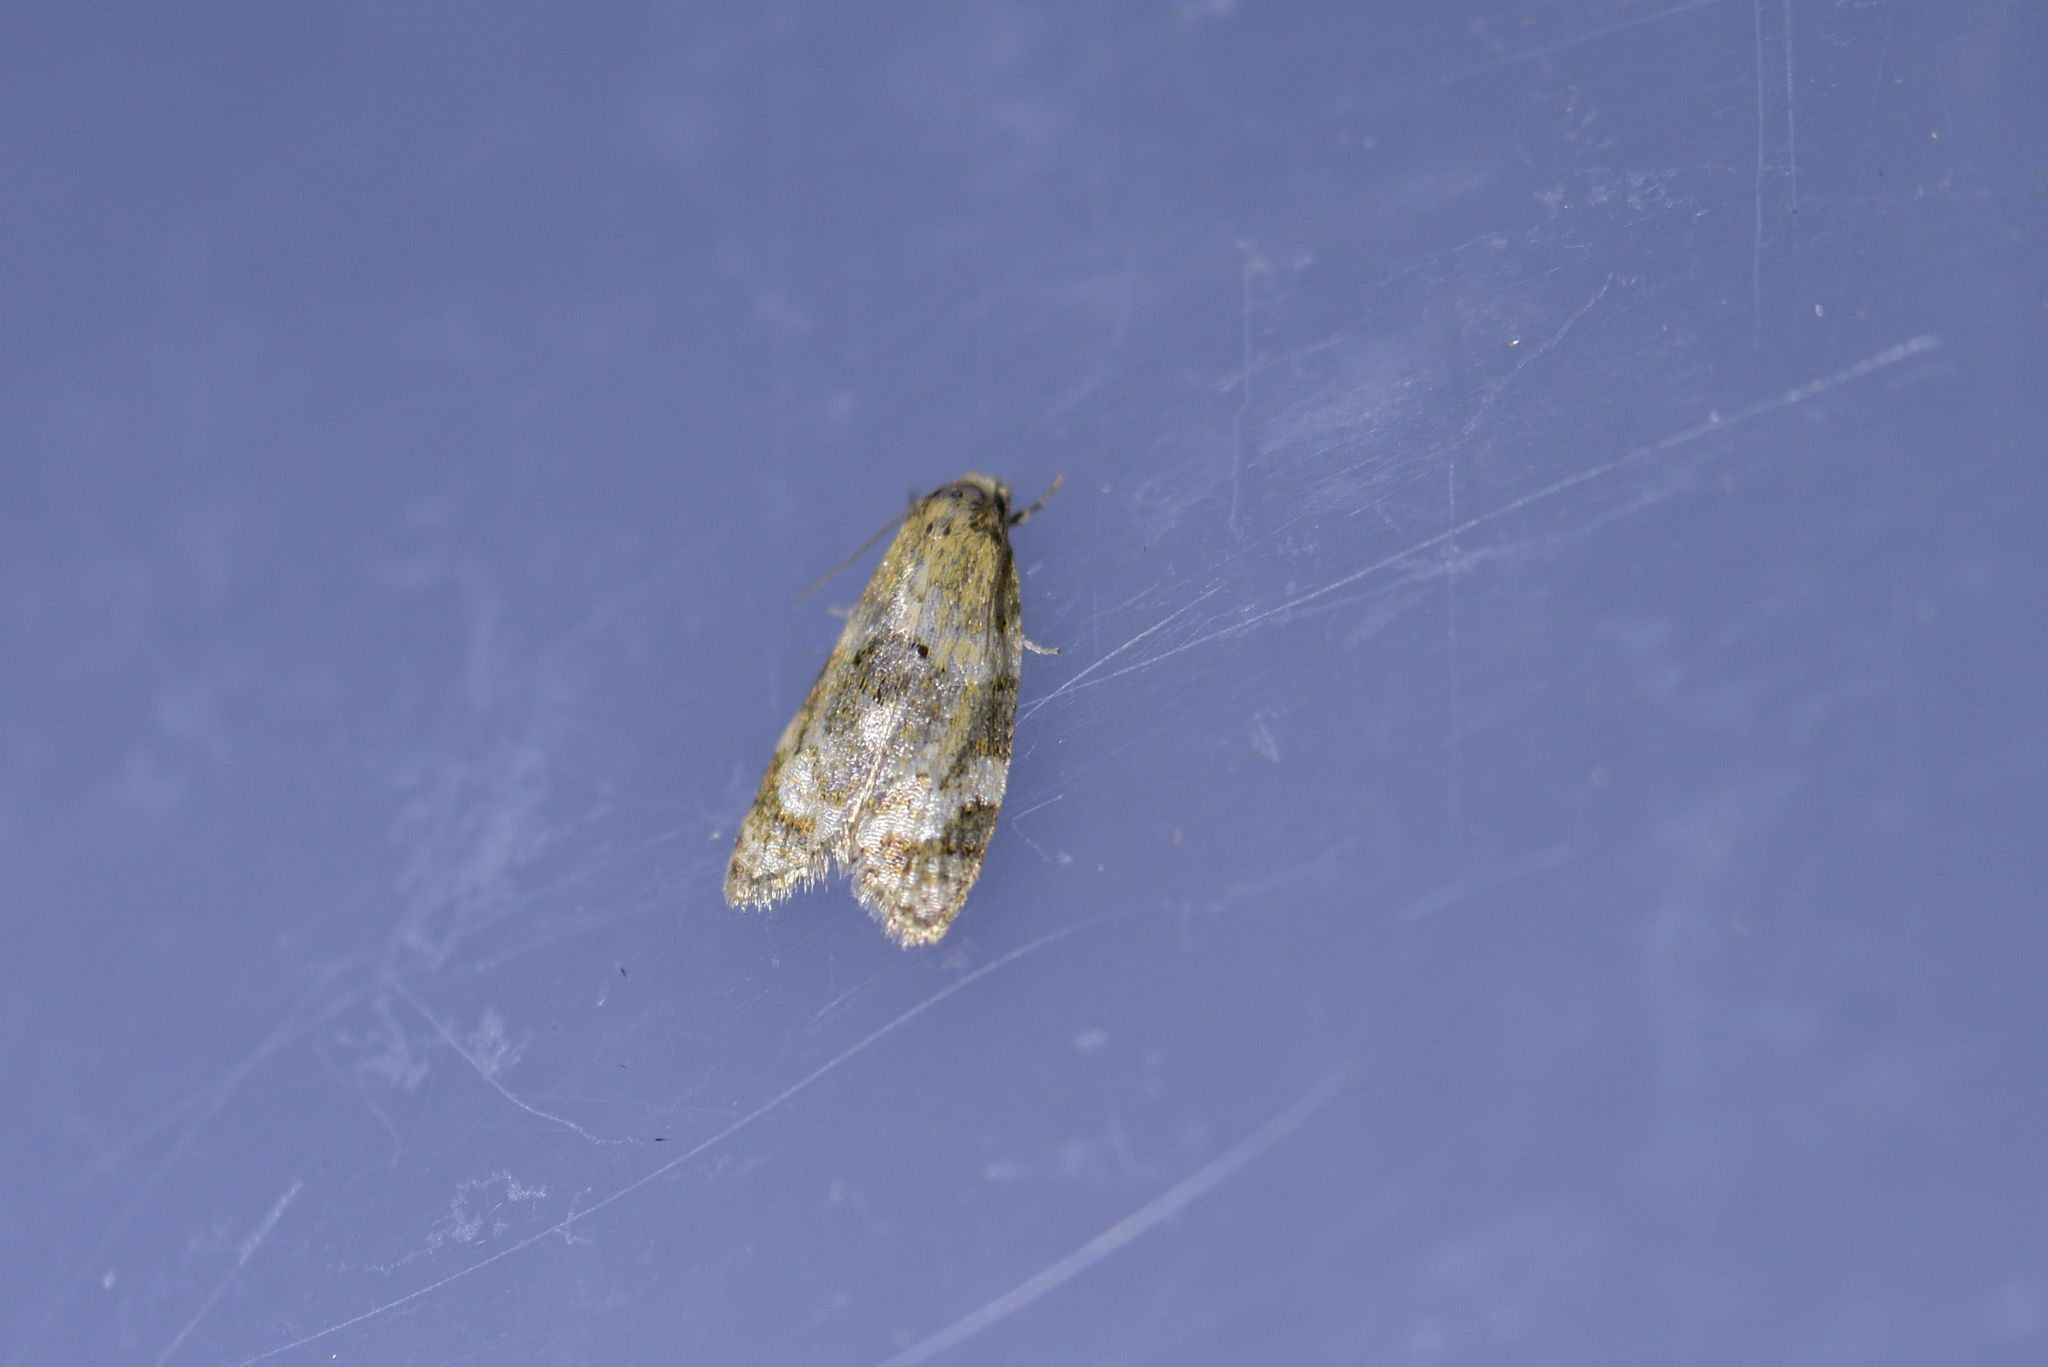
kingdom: Animalia
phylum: Arthropoda
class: Insecta
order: Lepidoptera
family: Tortricidae
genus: Dipterina
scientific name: Dipterina imbriferana
